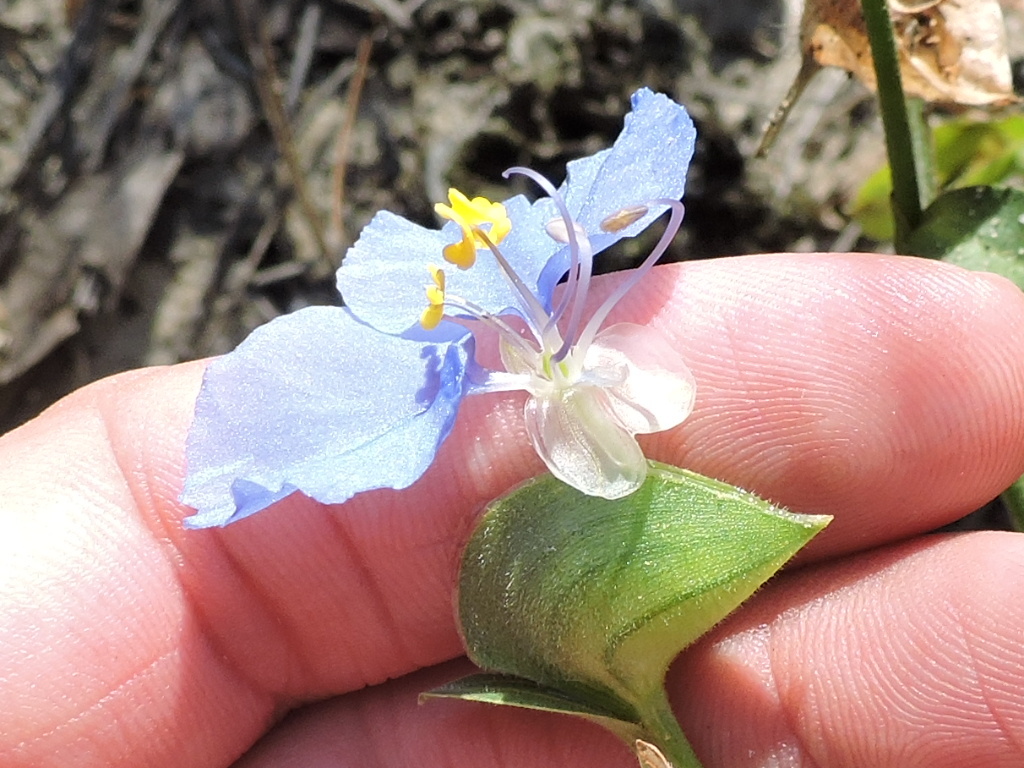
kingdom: Plantae
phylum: Tracheophyta
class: Liliopsida
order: Commelinales
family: Commelinaceae
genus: Commelina
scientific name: Commelina erecta
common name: Blousel blommetjie
